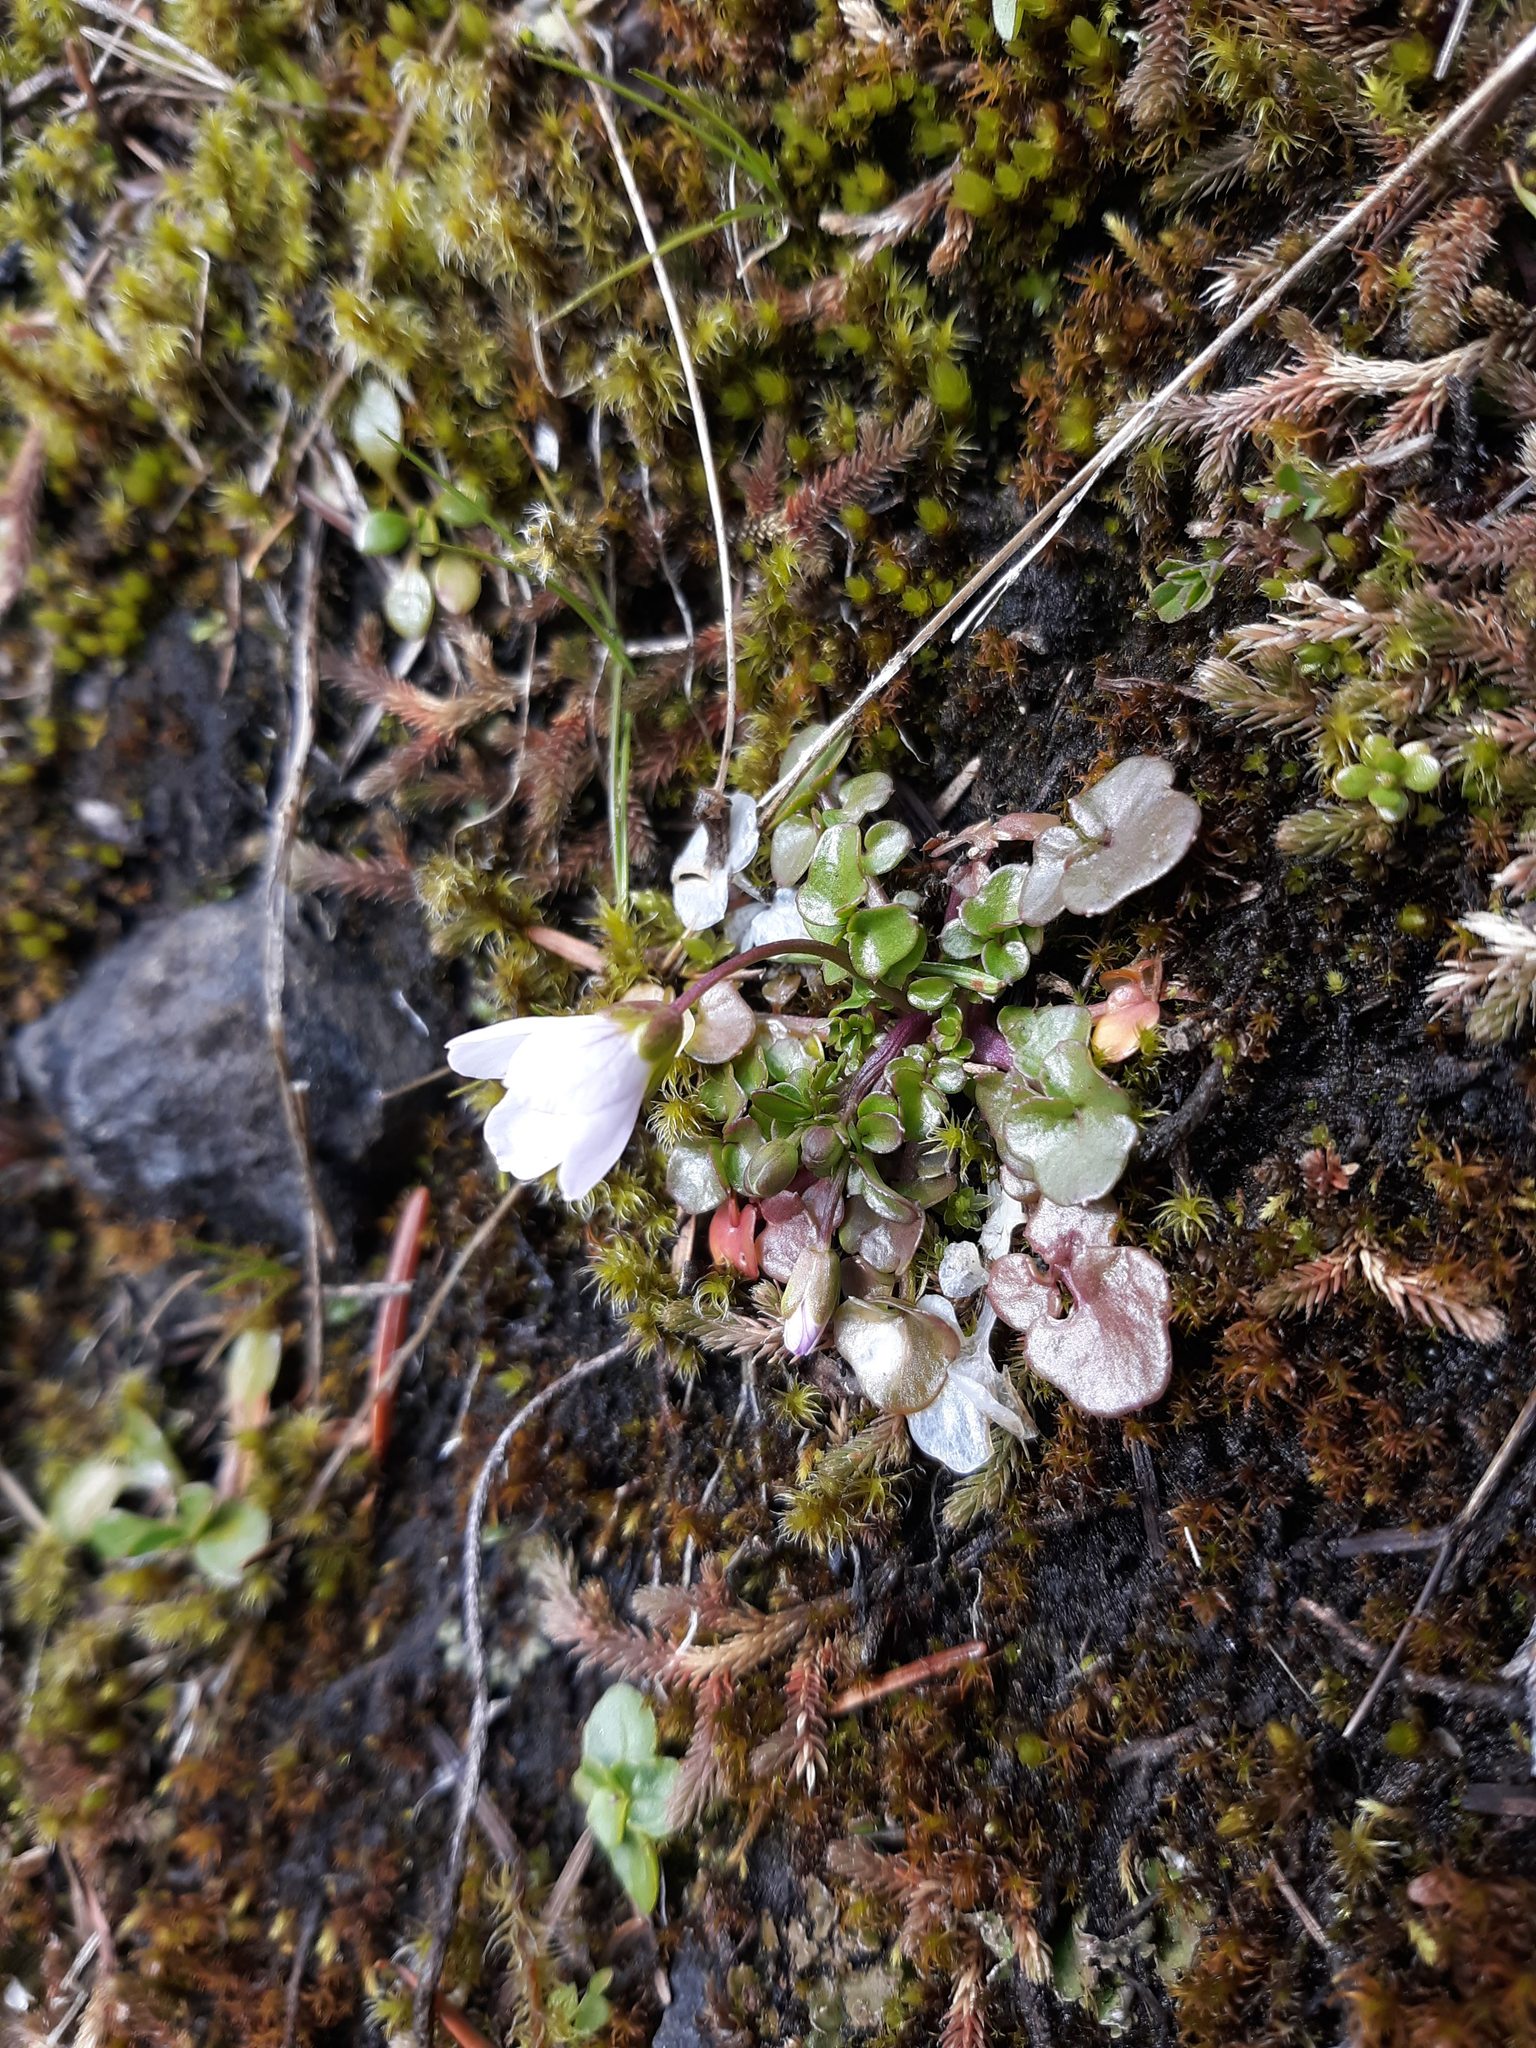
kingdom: Plantae
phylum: Tracheophyta
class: Magnoliopsida
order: Brassicales
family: Brassicaceae
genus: Cardamine
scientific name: Cardamine pattersonii
